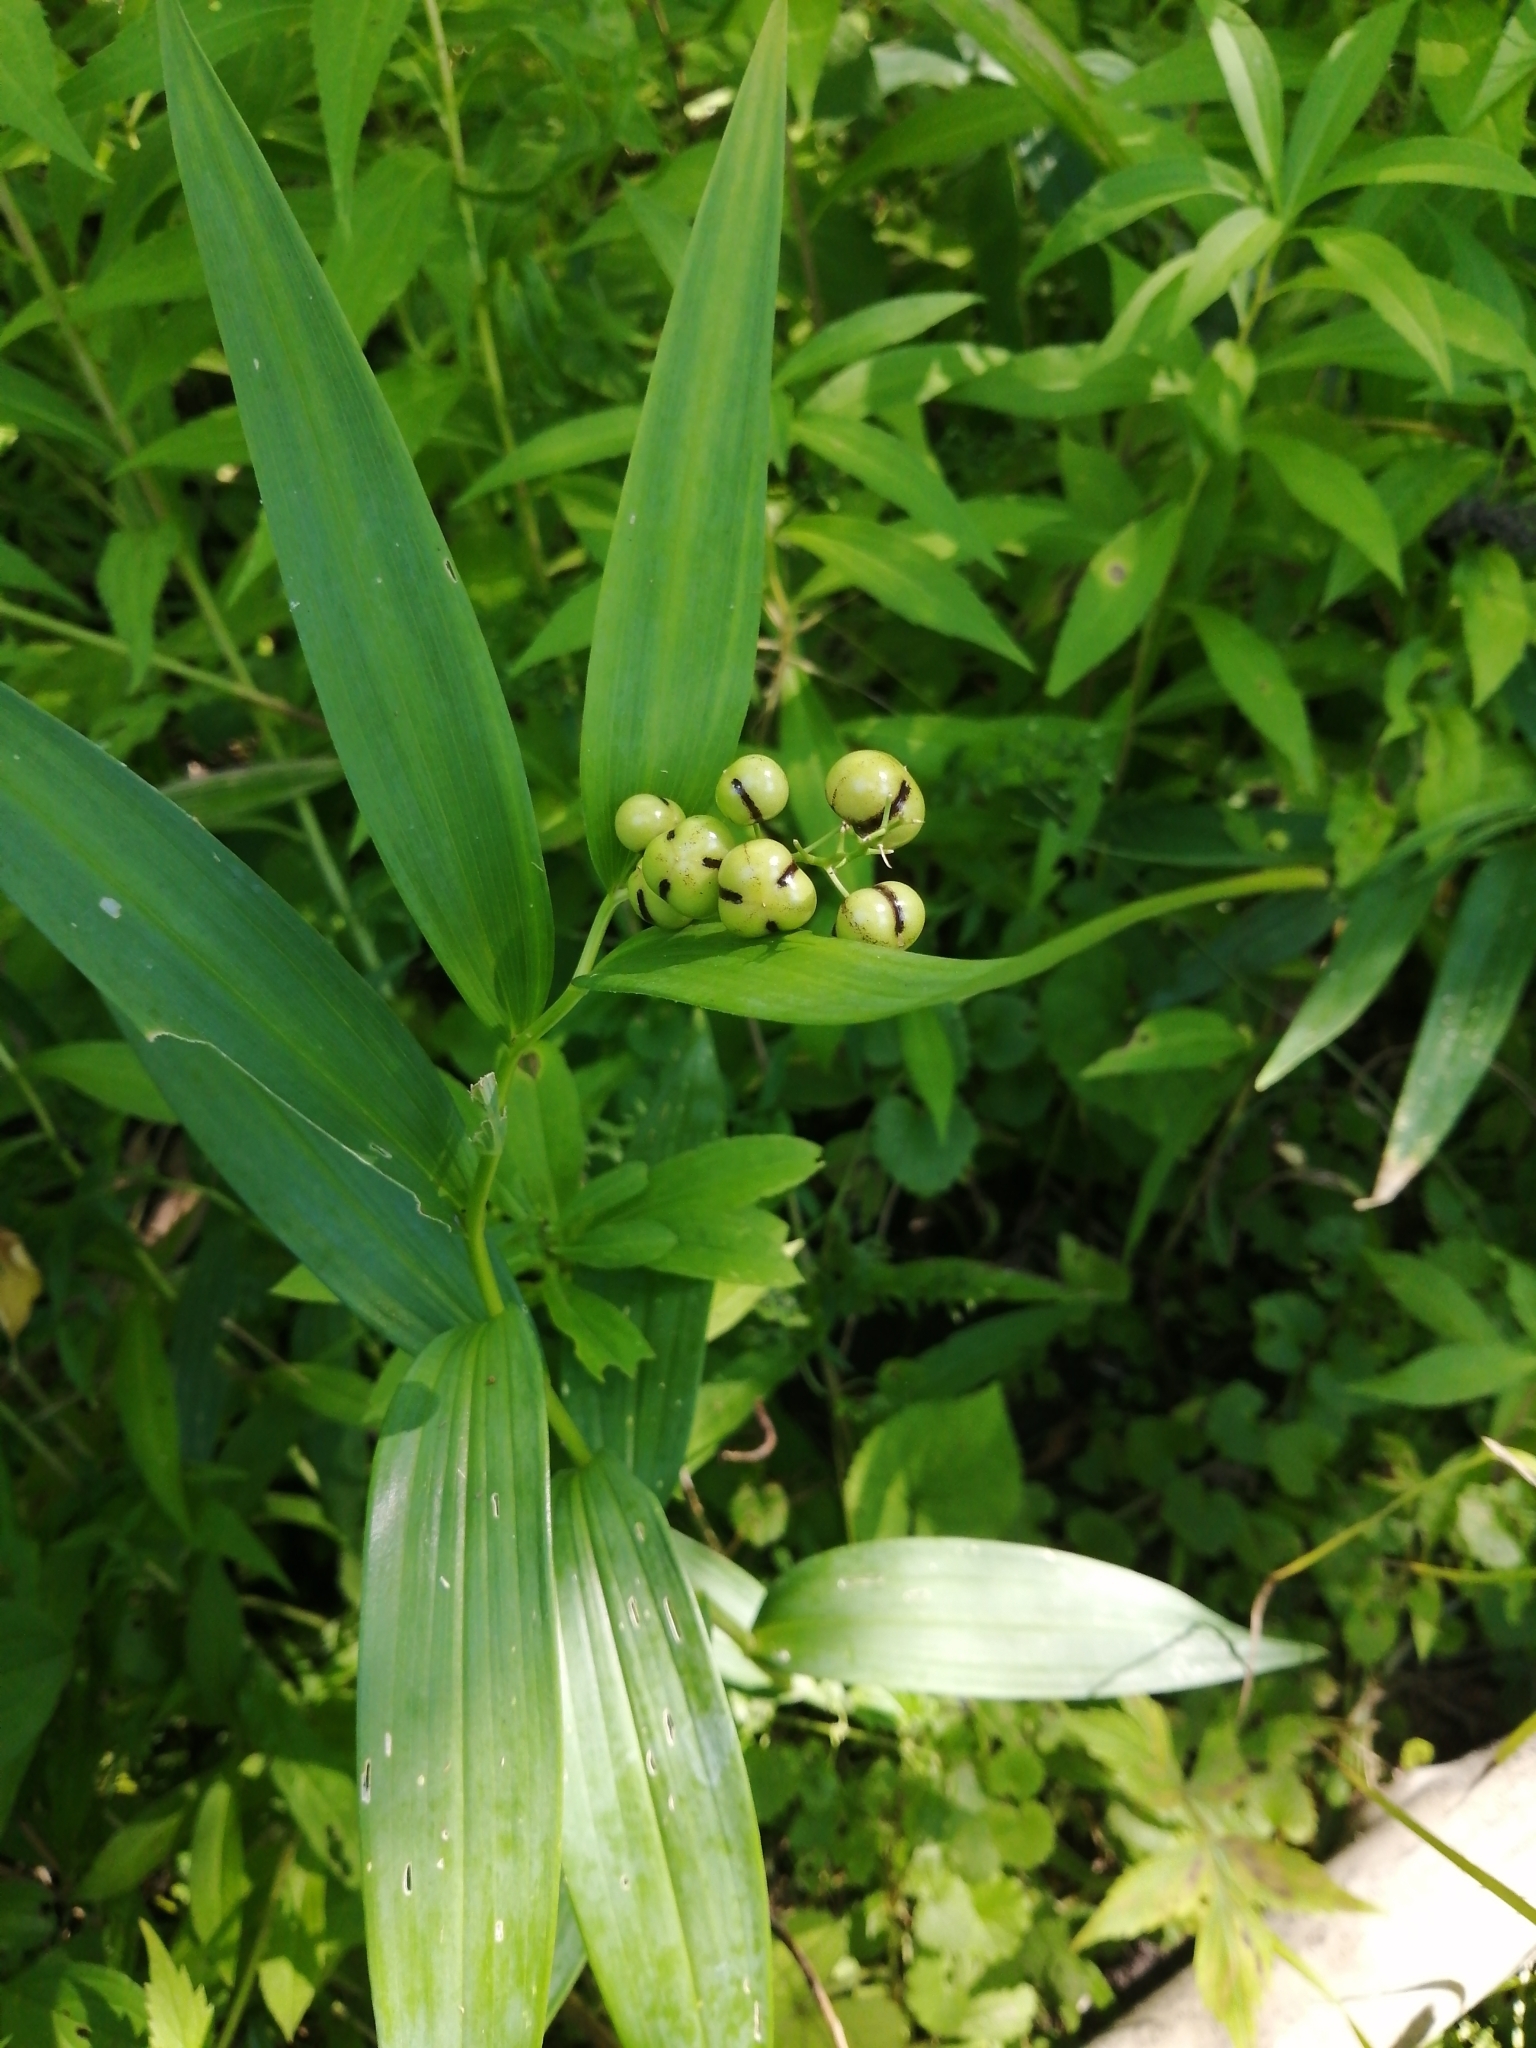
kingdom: Plantae
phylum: Tracheophyta
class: Liliopsida
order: Asparagales
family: Asparagaceae
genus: Maianthemum
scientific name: Maianthemum stellatum
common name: Little false solomon's seal
